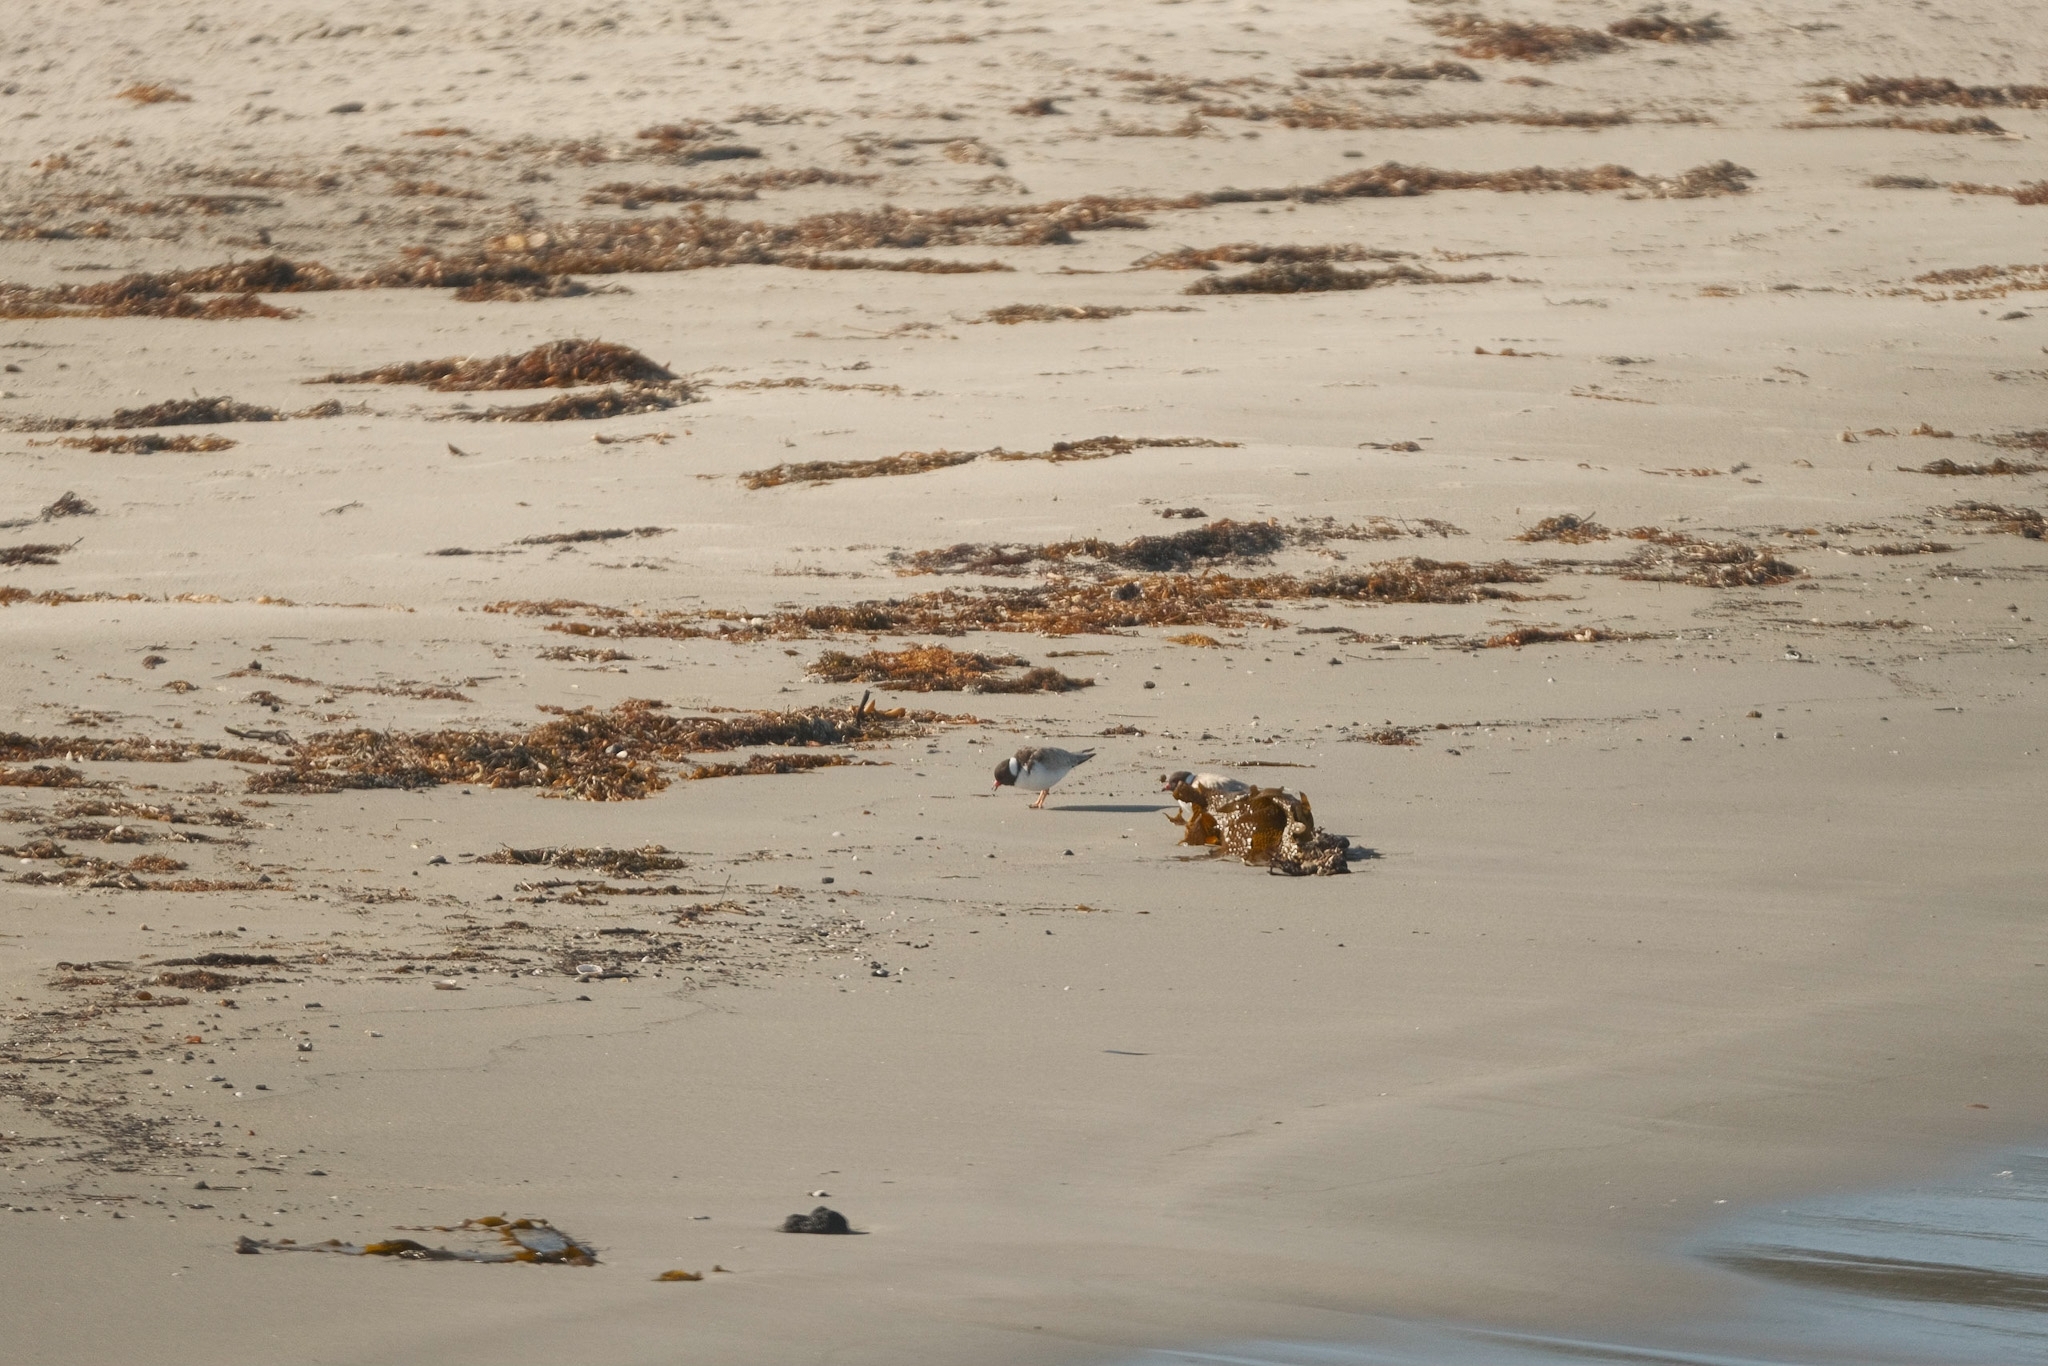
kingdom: Animalia
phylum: Chordata
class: Aves
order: Charadriiformes
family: Charadriidae
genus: Thinornis
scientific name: Thinornis cucullatus
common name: Hooded dotterel
